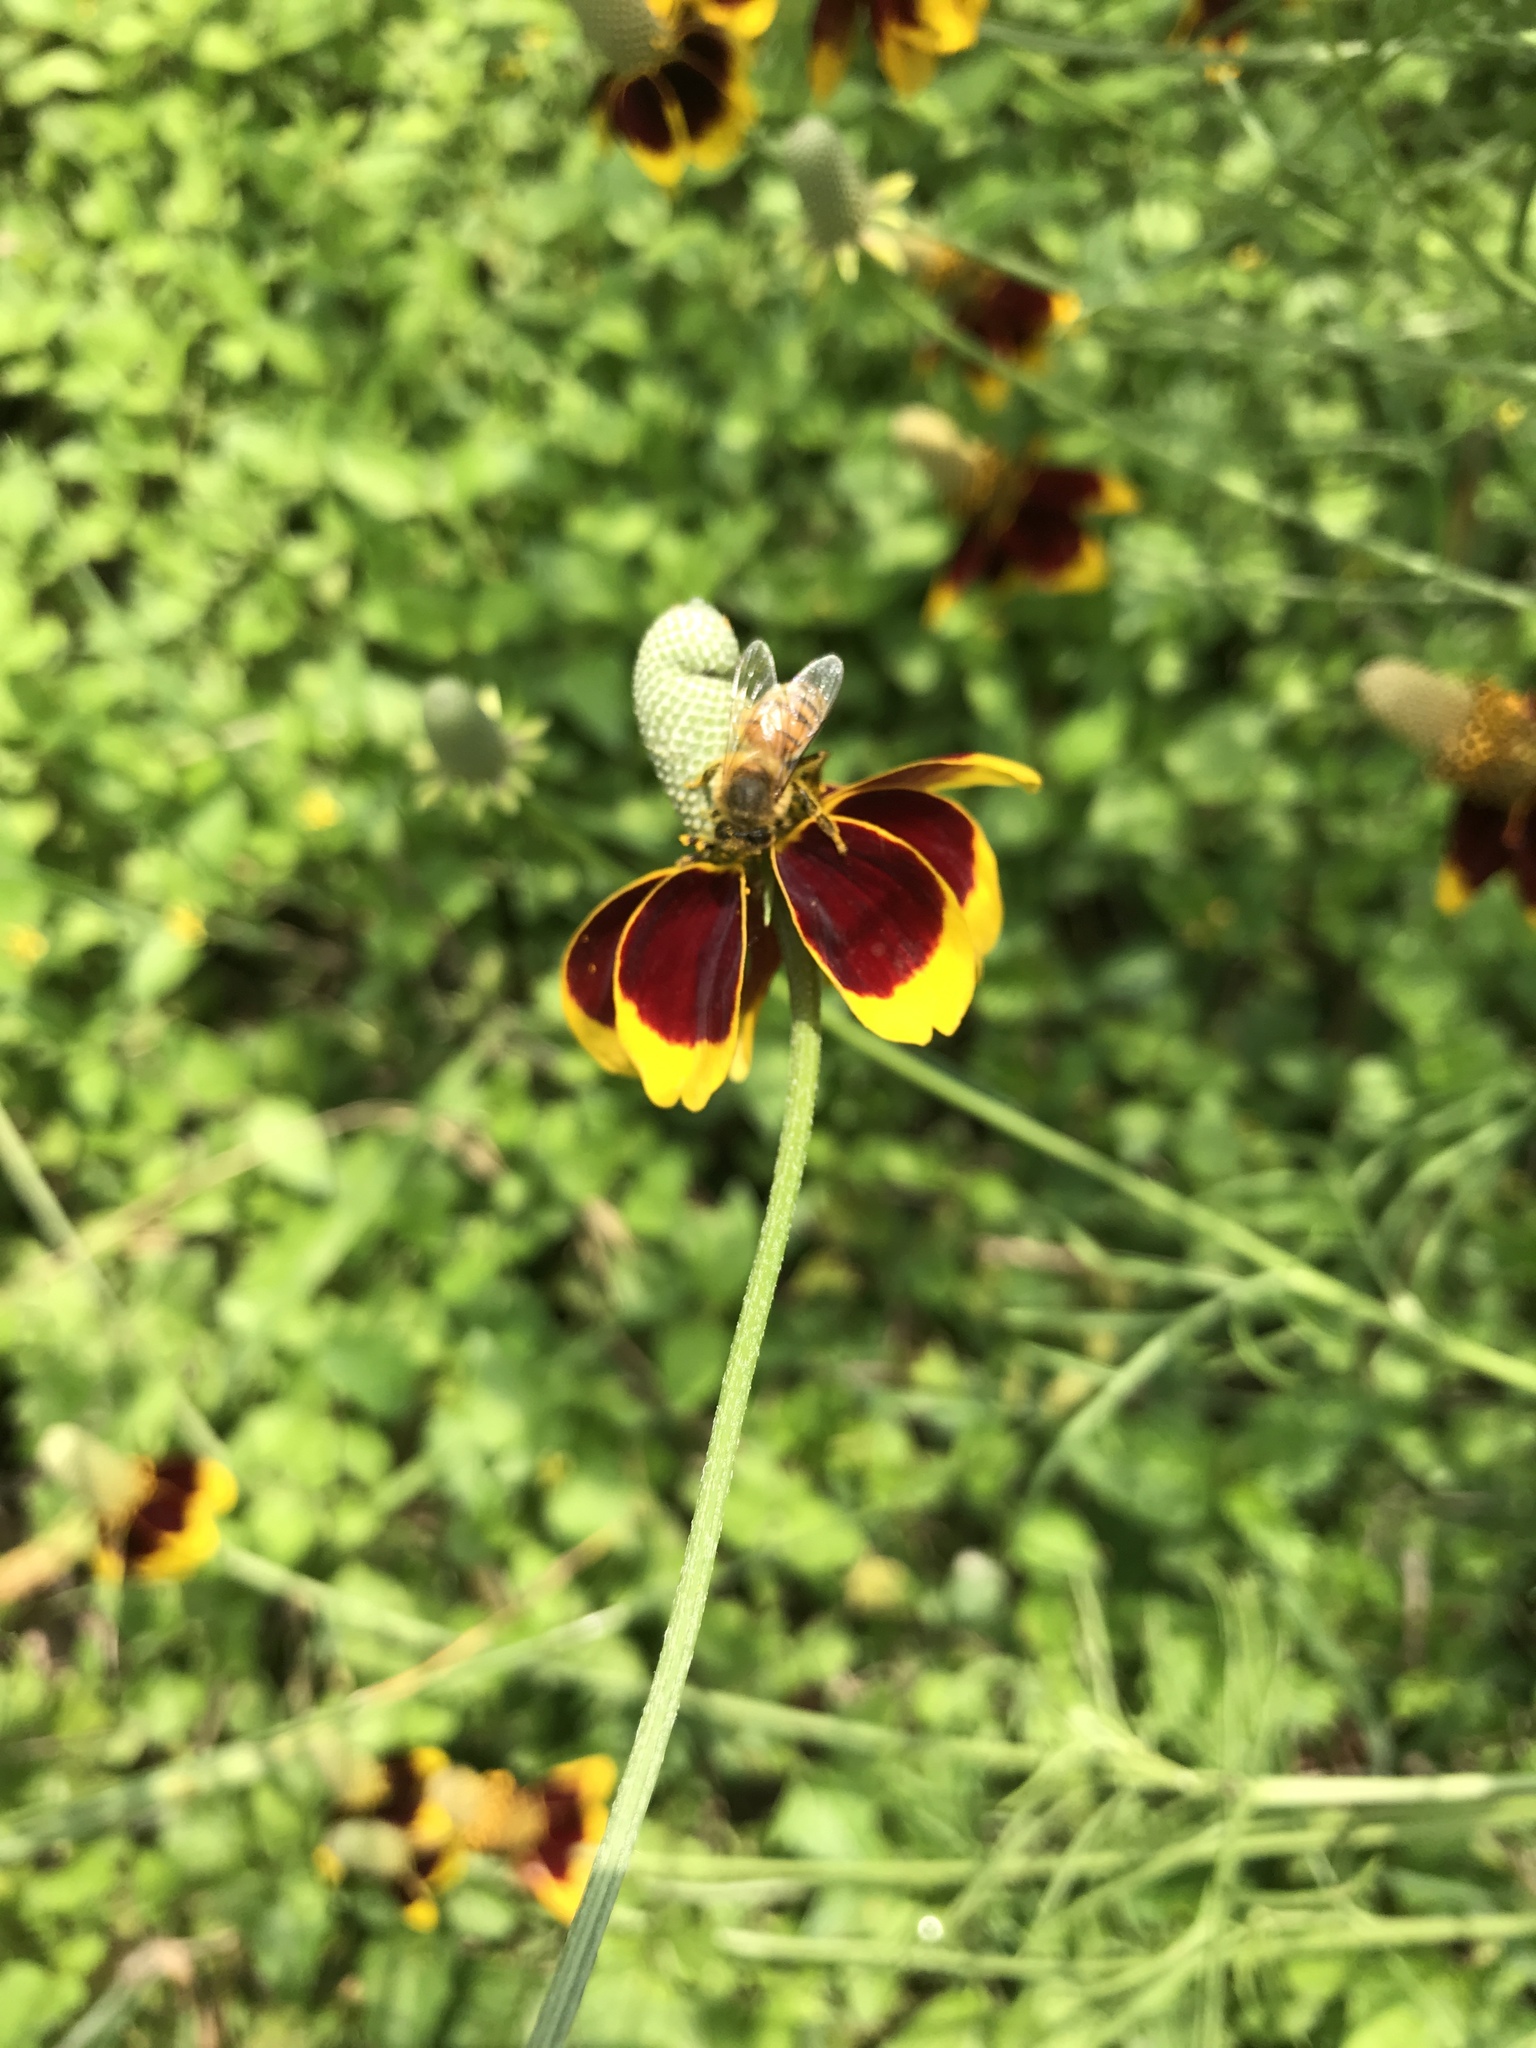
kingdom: Animalia
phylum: Arthropoda
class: Insecta
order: Hymenoptera
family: Apidae
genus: Apis
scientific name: Apis mellifera
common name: Honey bee
